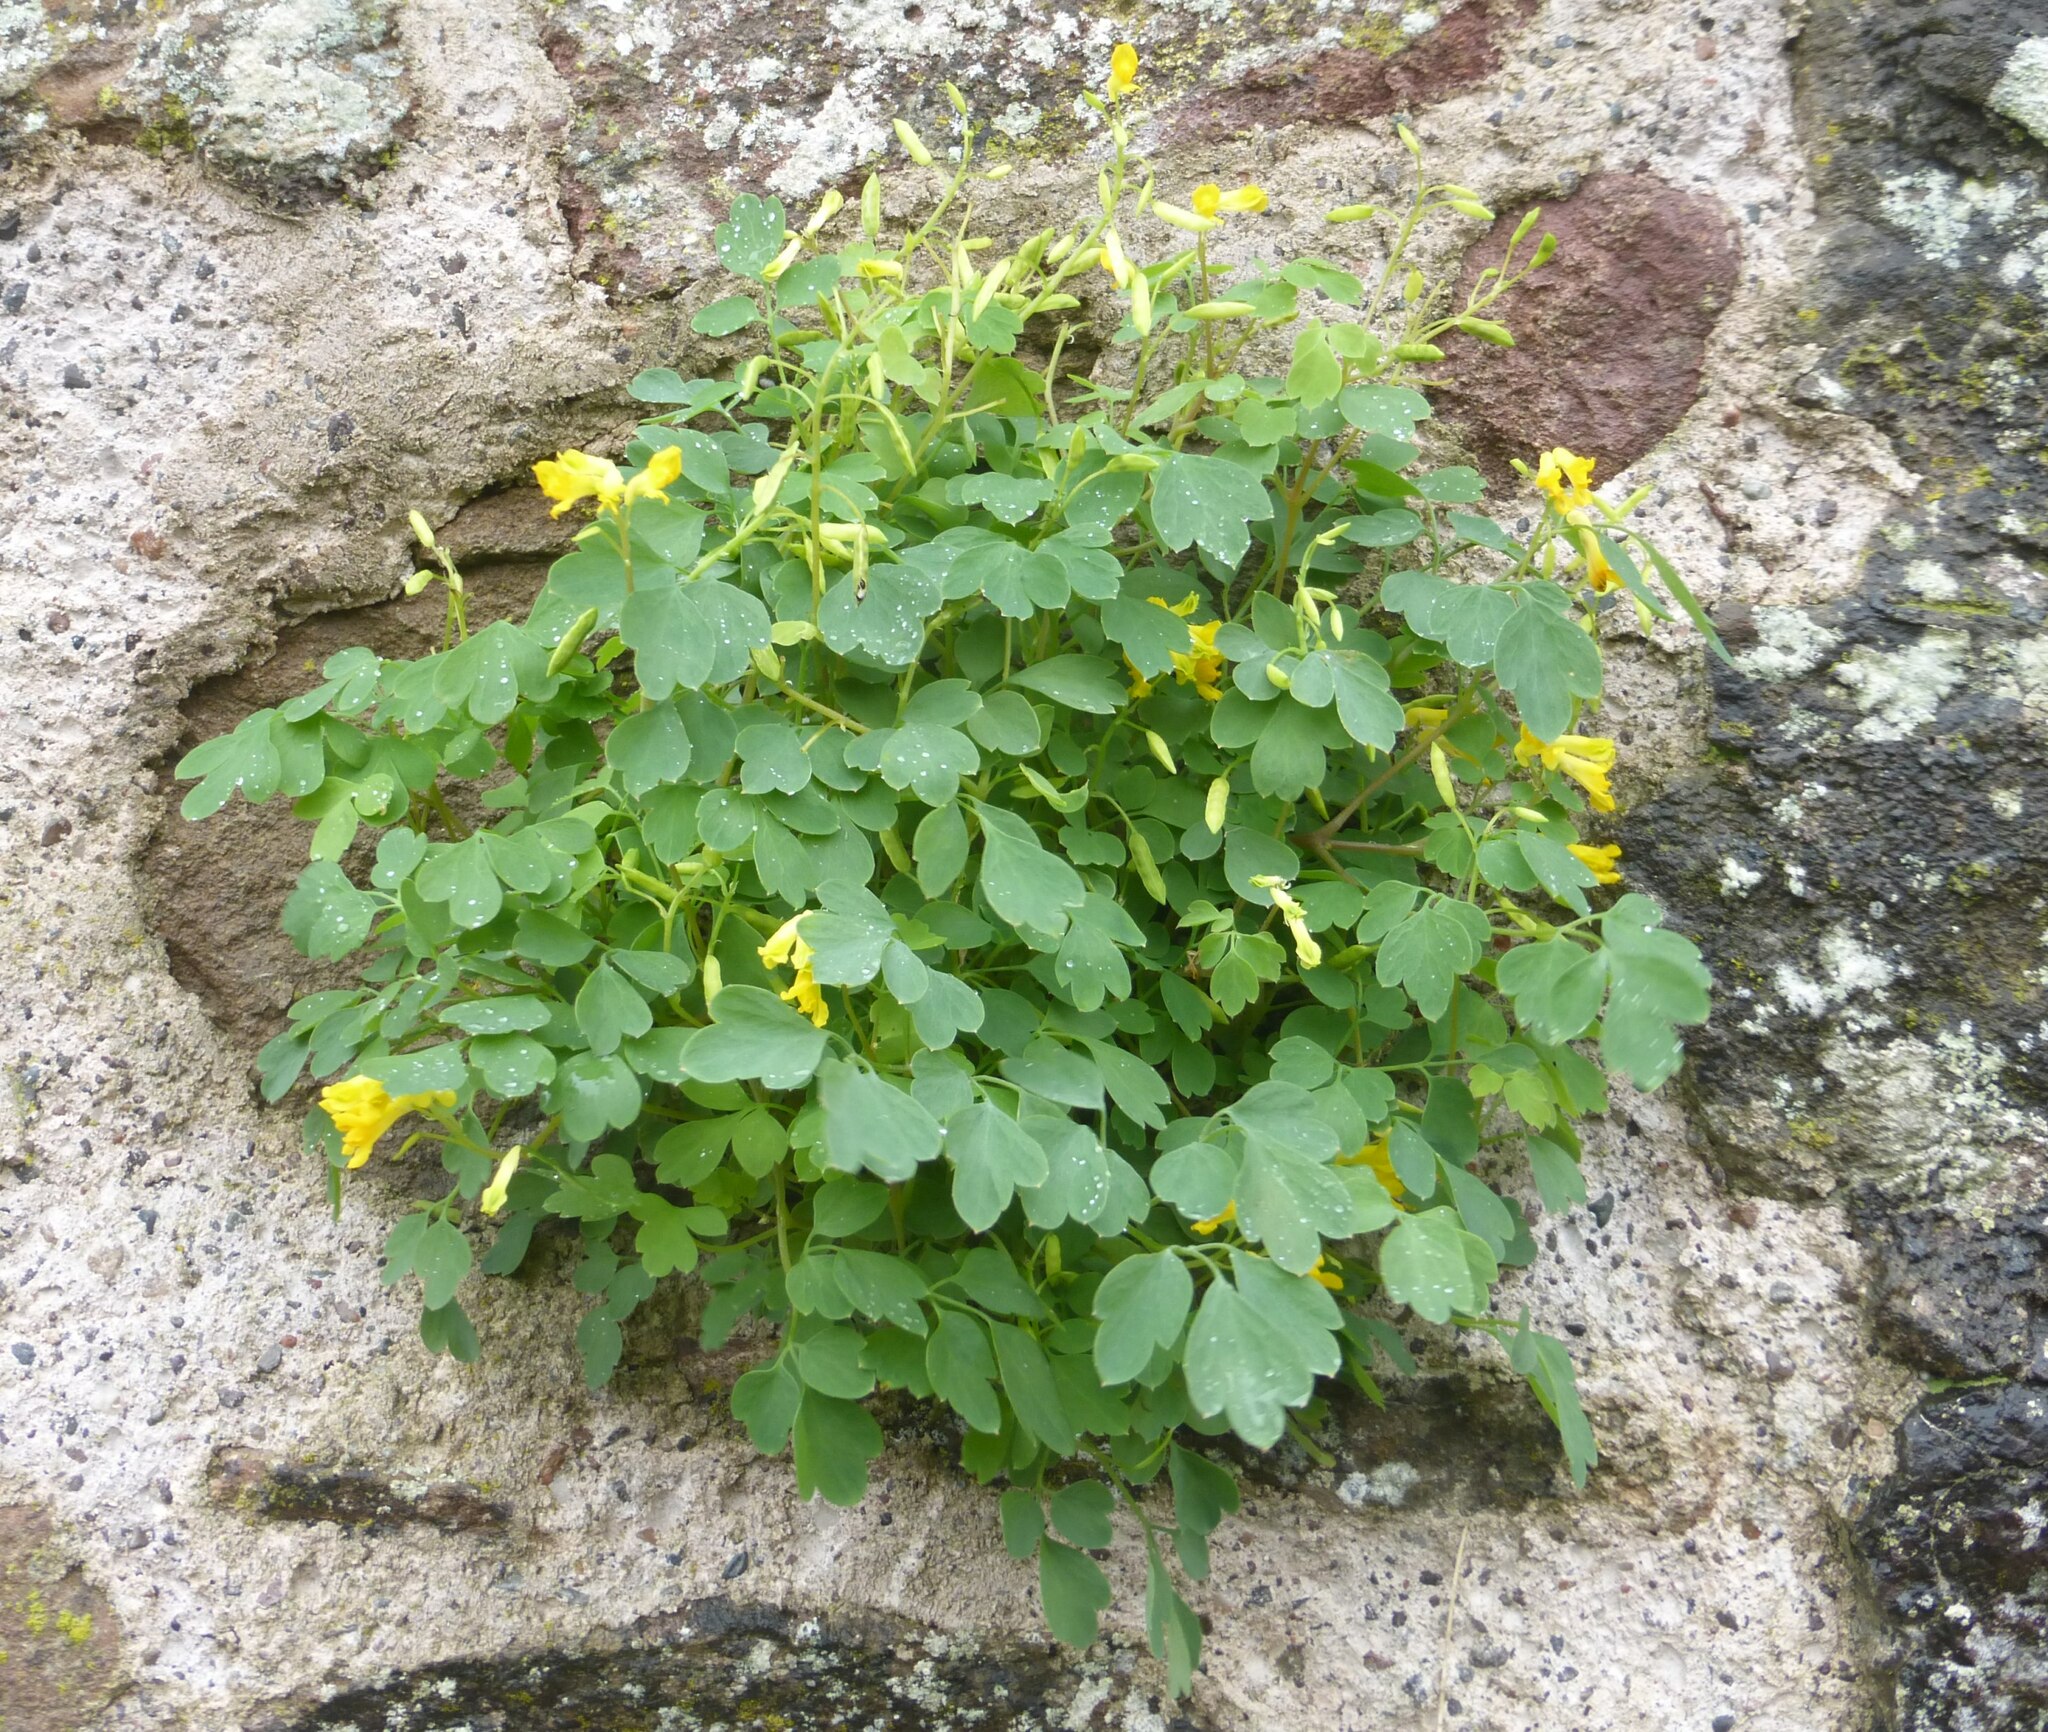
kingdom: Plantae
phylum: Tracheophyta
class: Magnoliopsida
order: Ranunculales
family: Papaveraceae
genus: Pseudofumaria
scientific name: Pseudofumaria lutea
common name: Yellow corydalis
